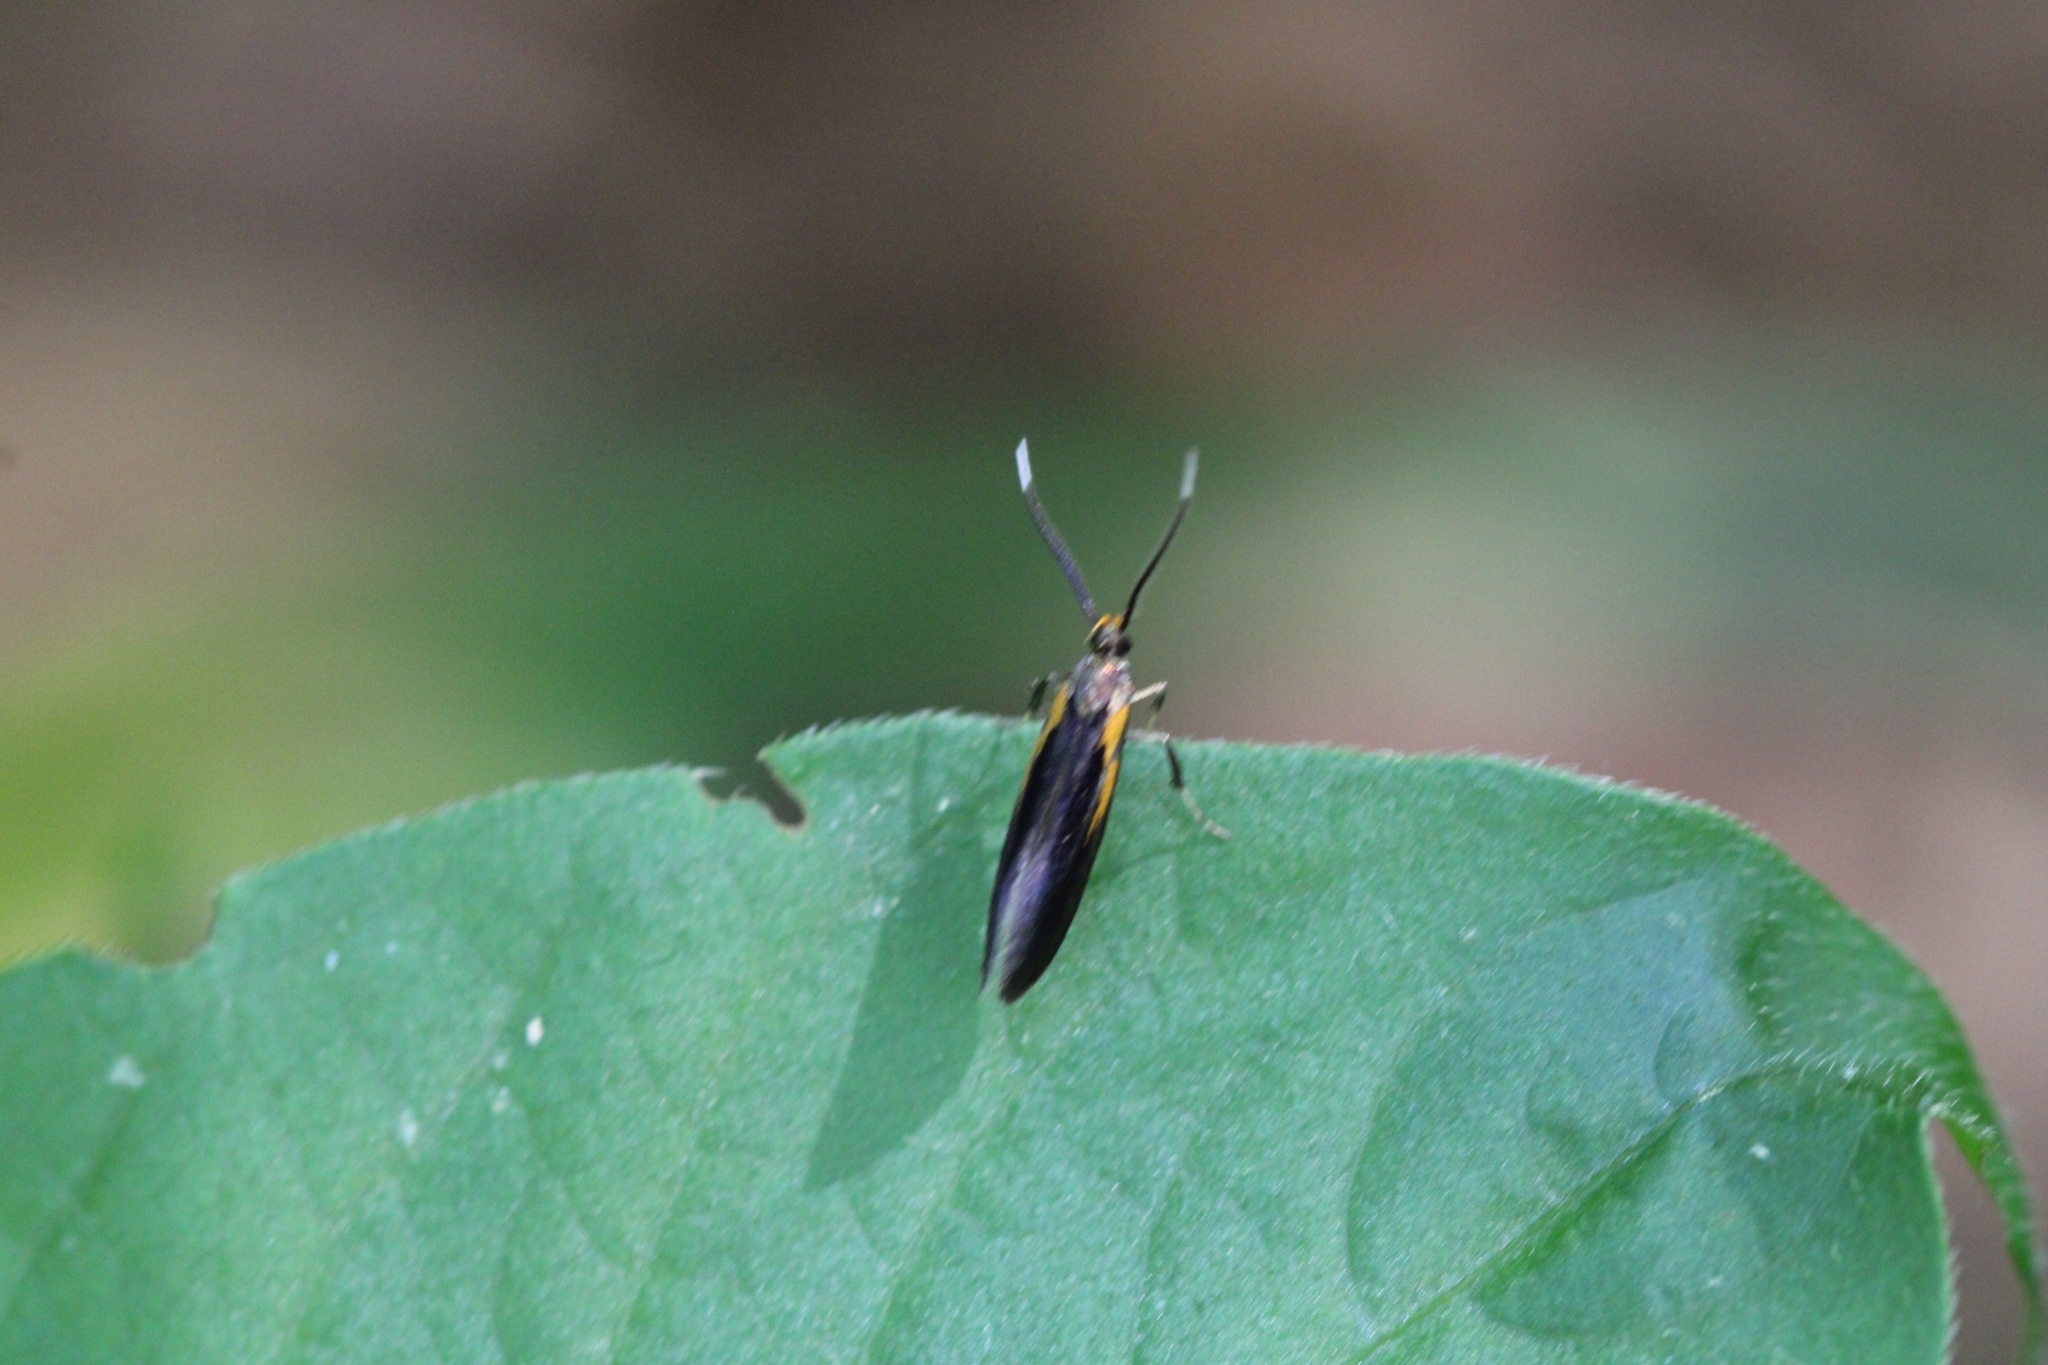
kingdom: Animalia
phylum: Arthropoda
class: Insecta
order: Lepidoptera
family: Oecophoridae
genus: Mathildana
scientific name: Mathildana newmanella
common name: Newman's mathildana moth
